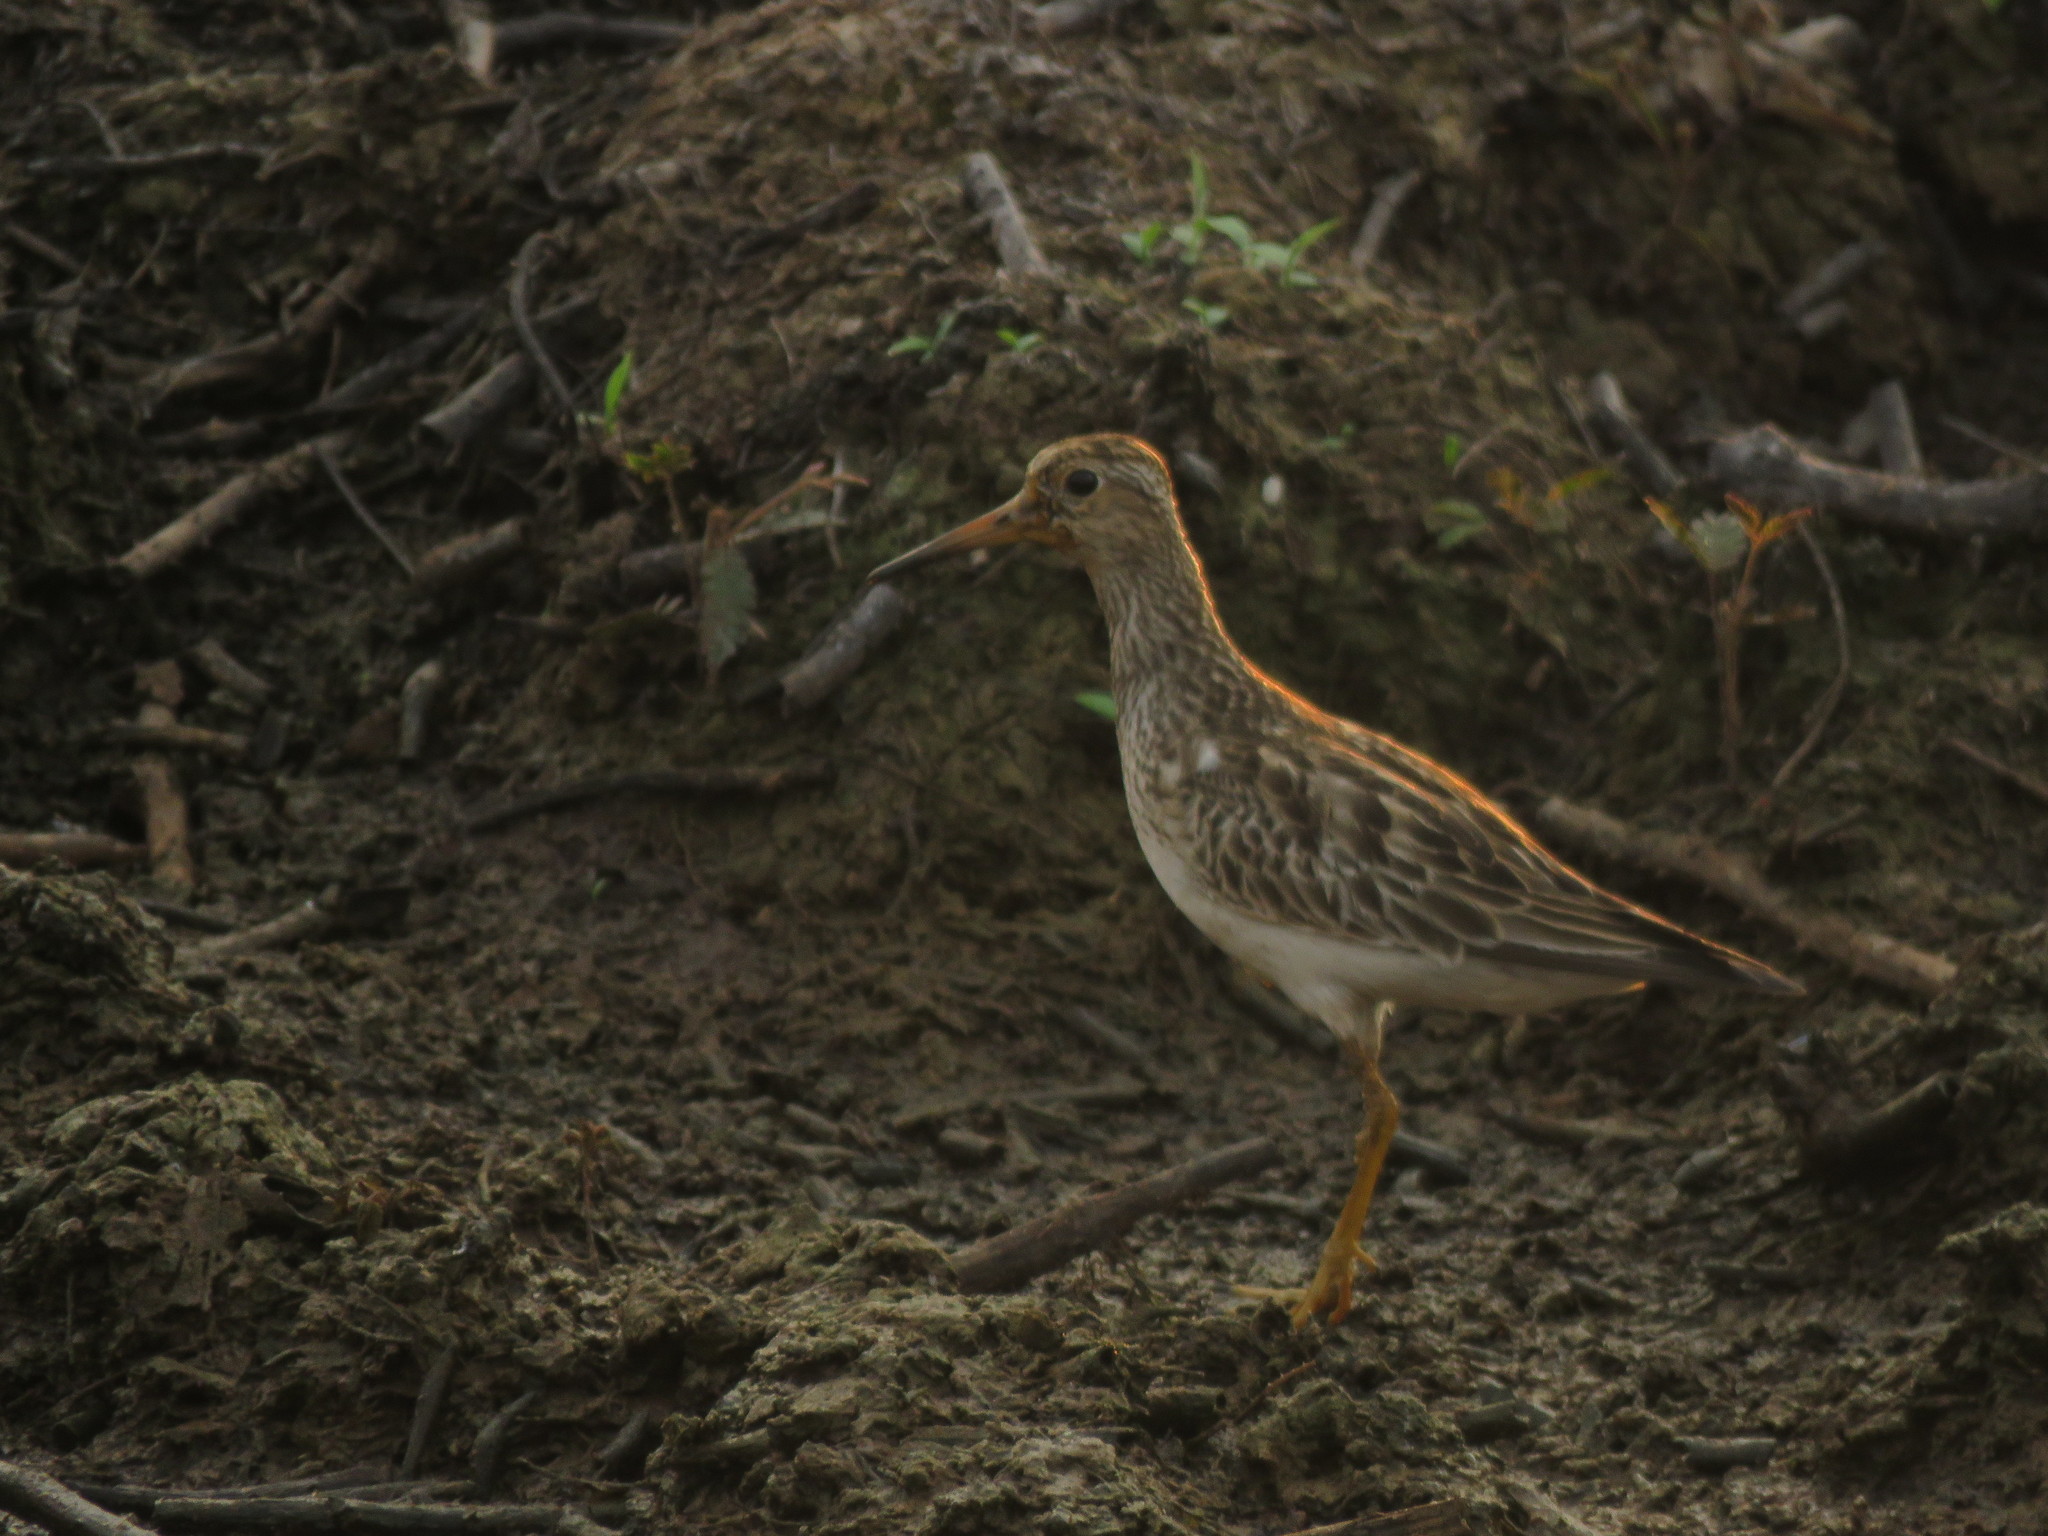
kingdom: Animalia
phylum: Chordata
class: Aves
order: Charadriiformes
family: Scolopacidae
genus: Calidris
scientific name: Calidris melanotos
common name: Pectoral sandpiper
